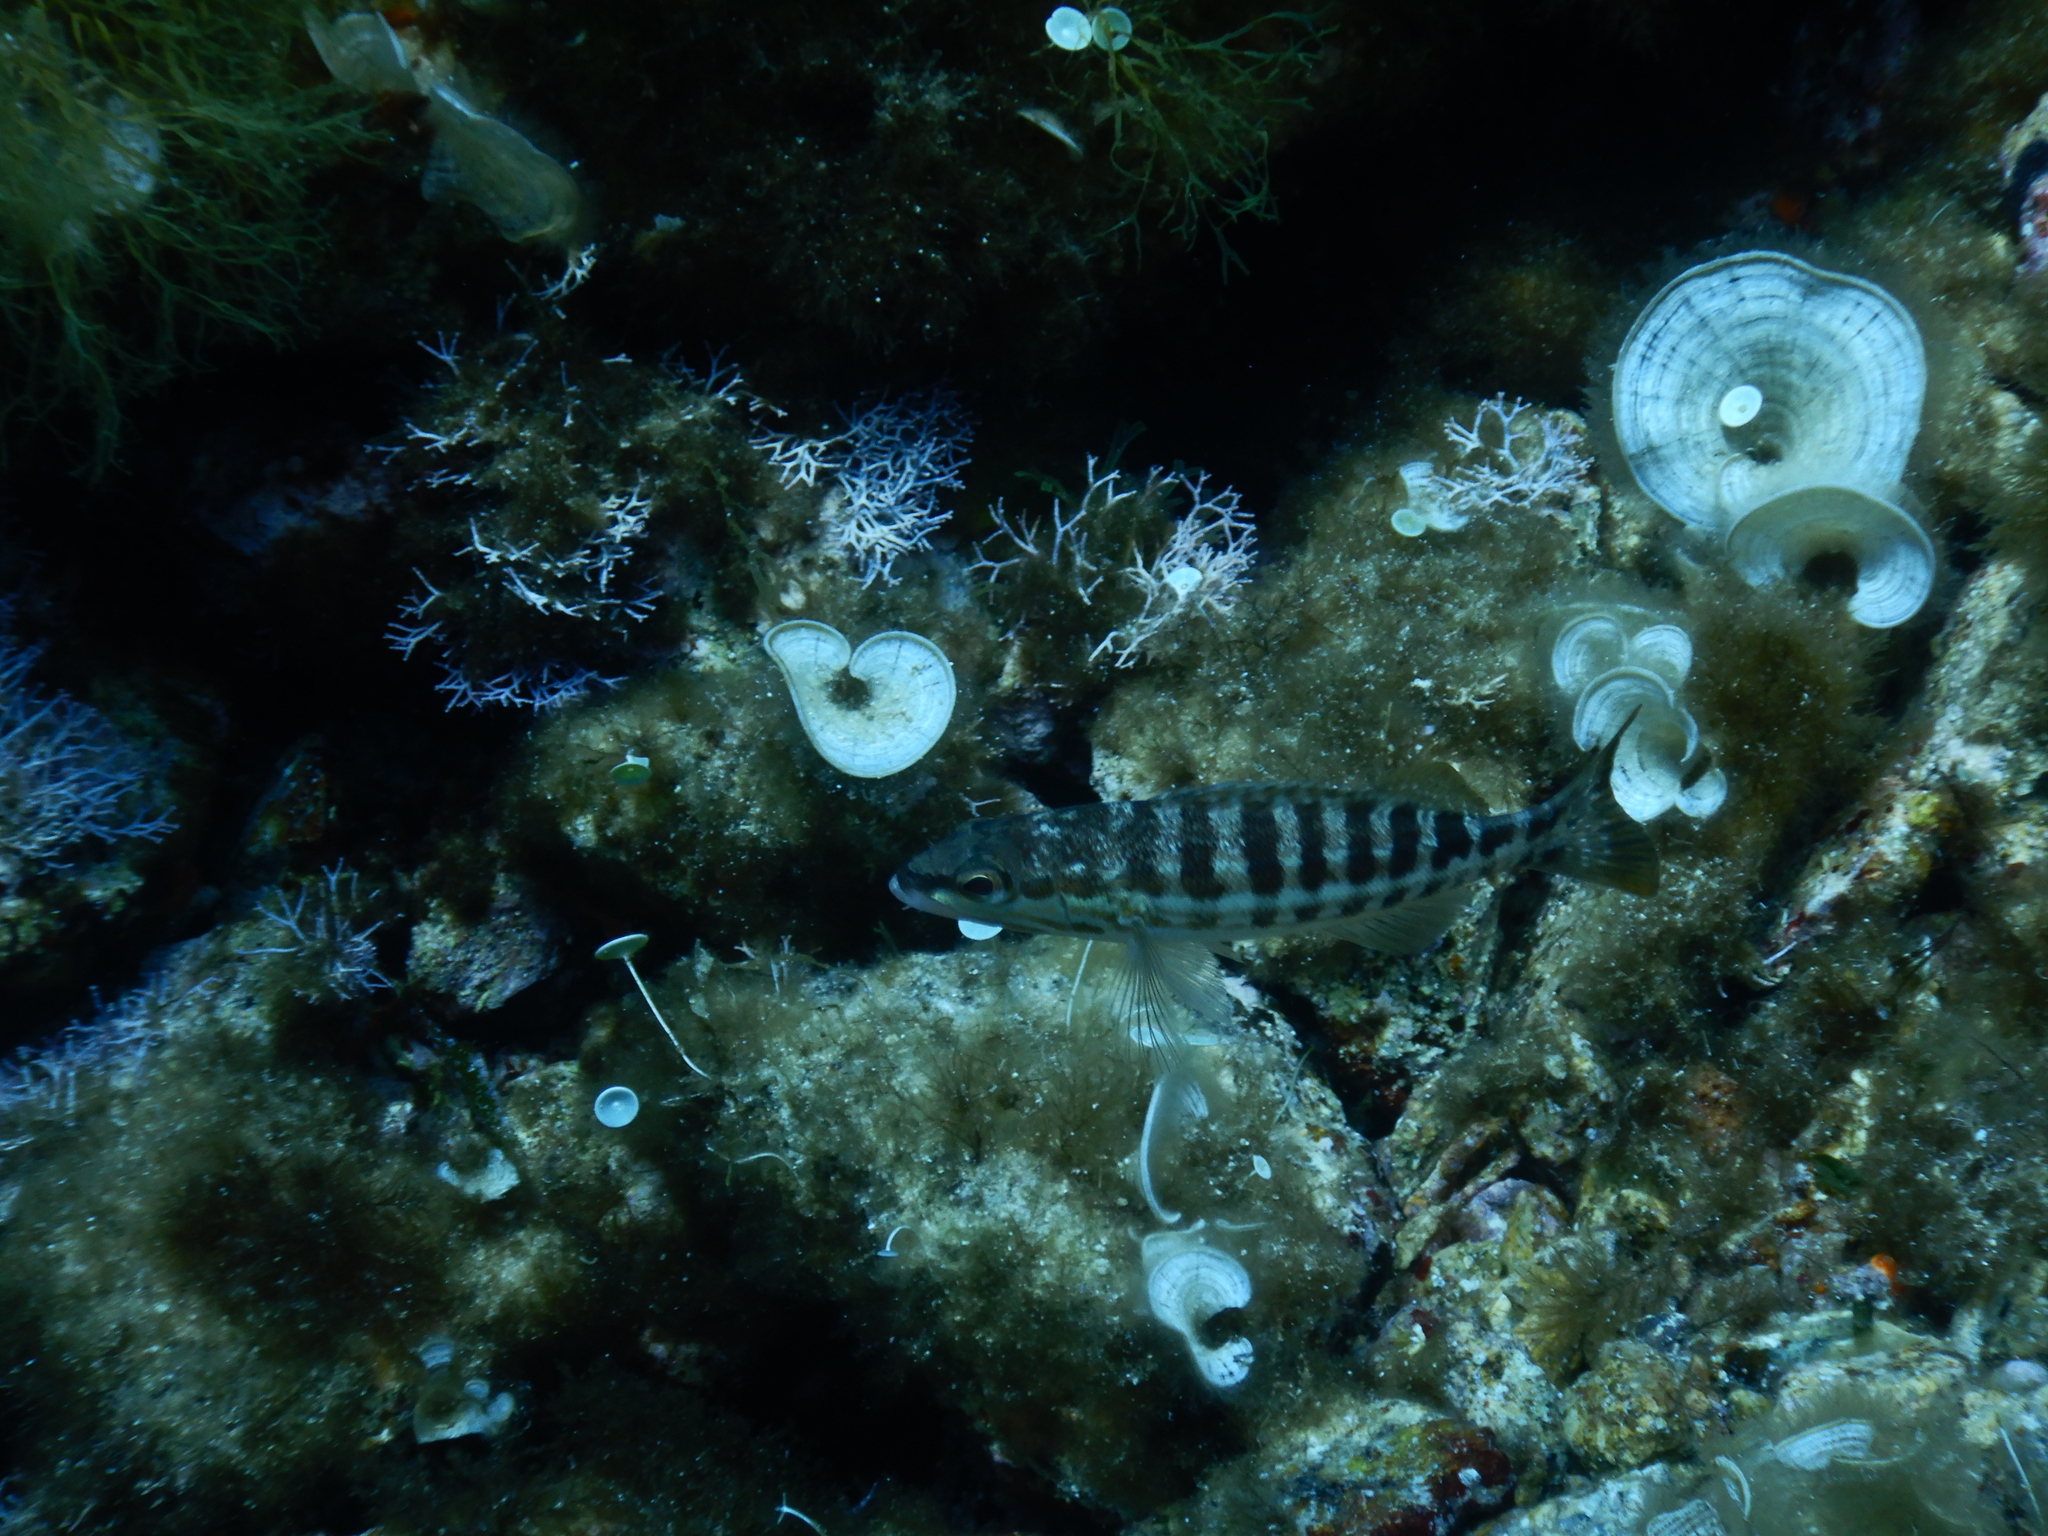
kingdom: Animalia
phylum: Chordata
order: Perciformes
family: Serranidae
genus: Serranus
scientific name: Serranus cabrilla
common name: Comber
